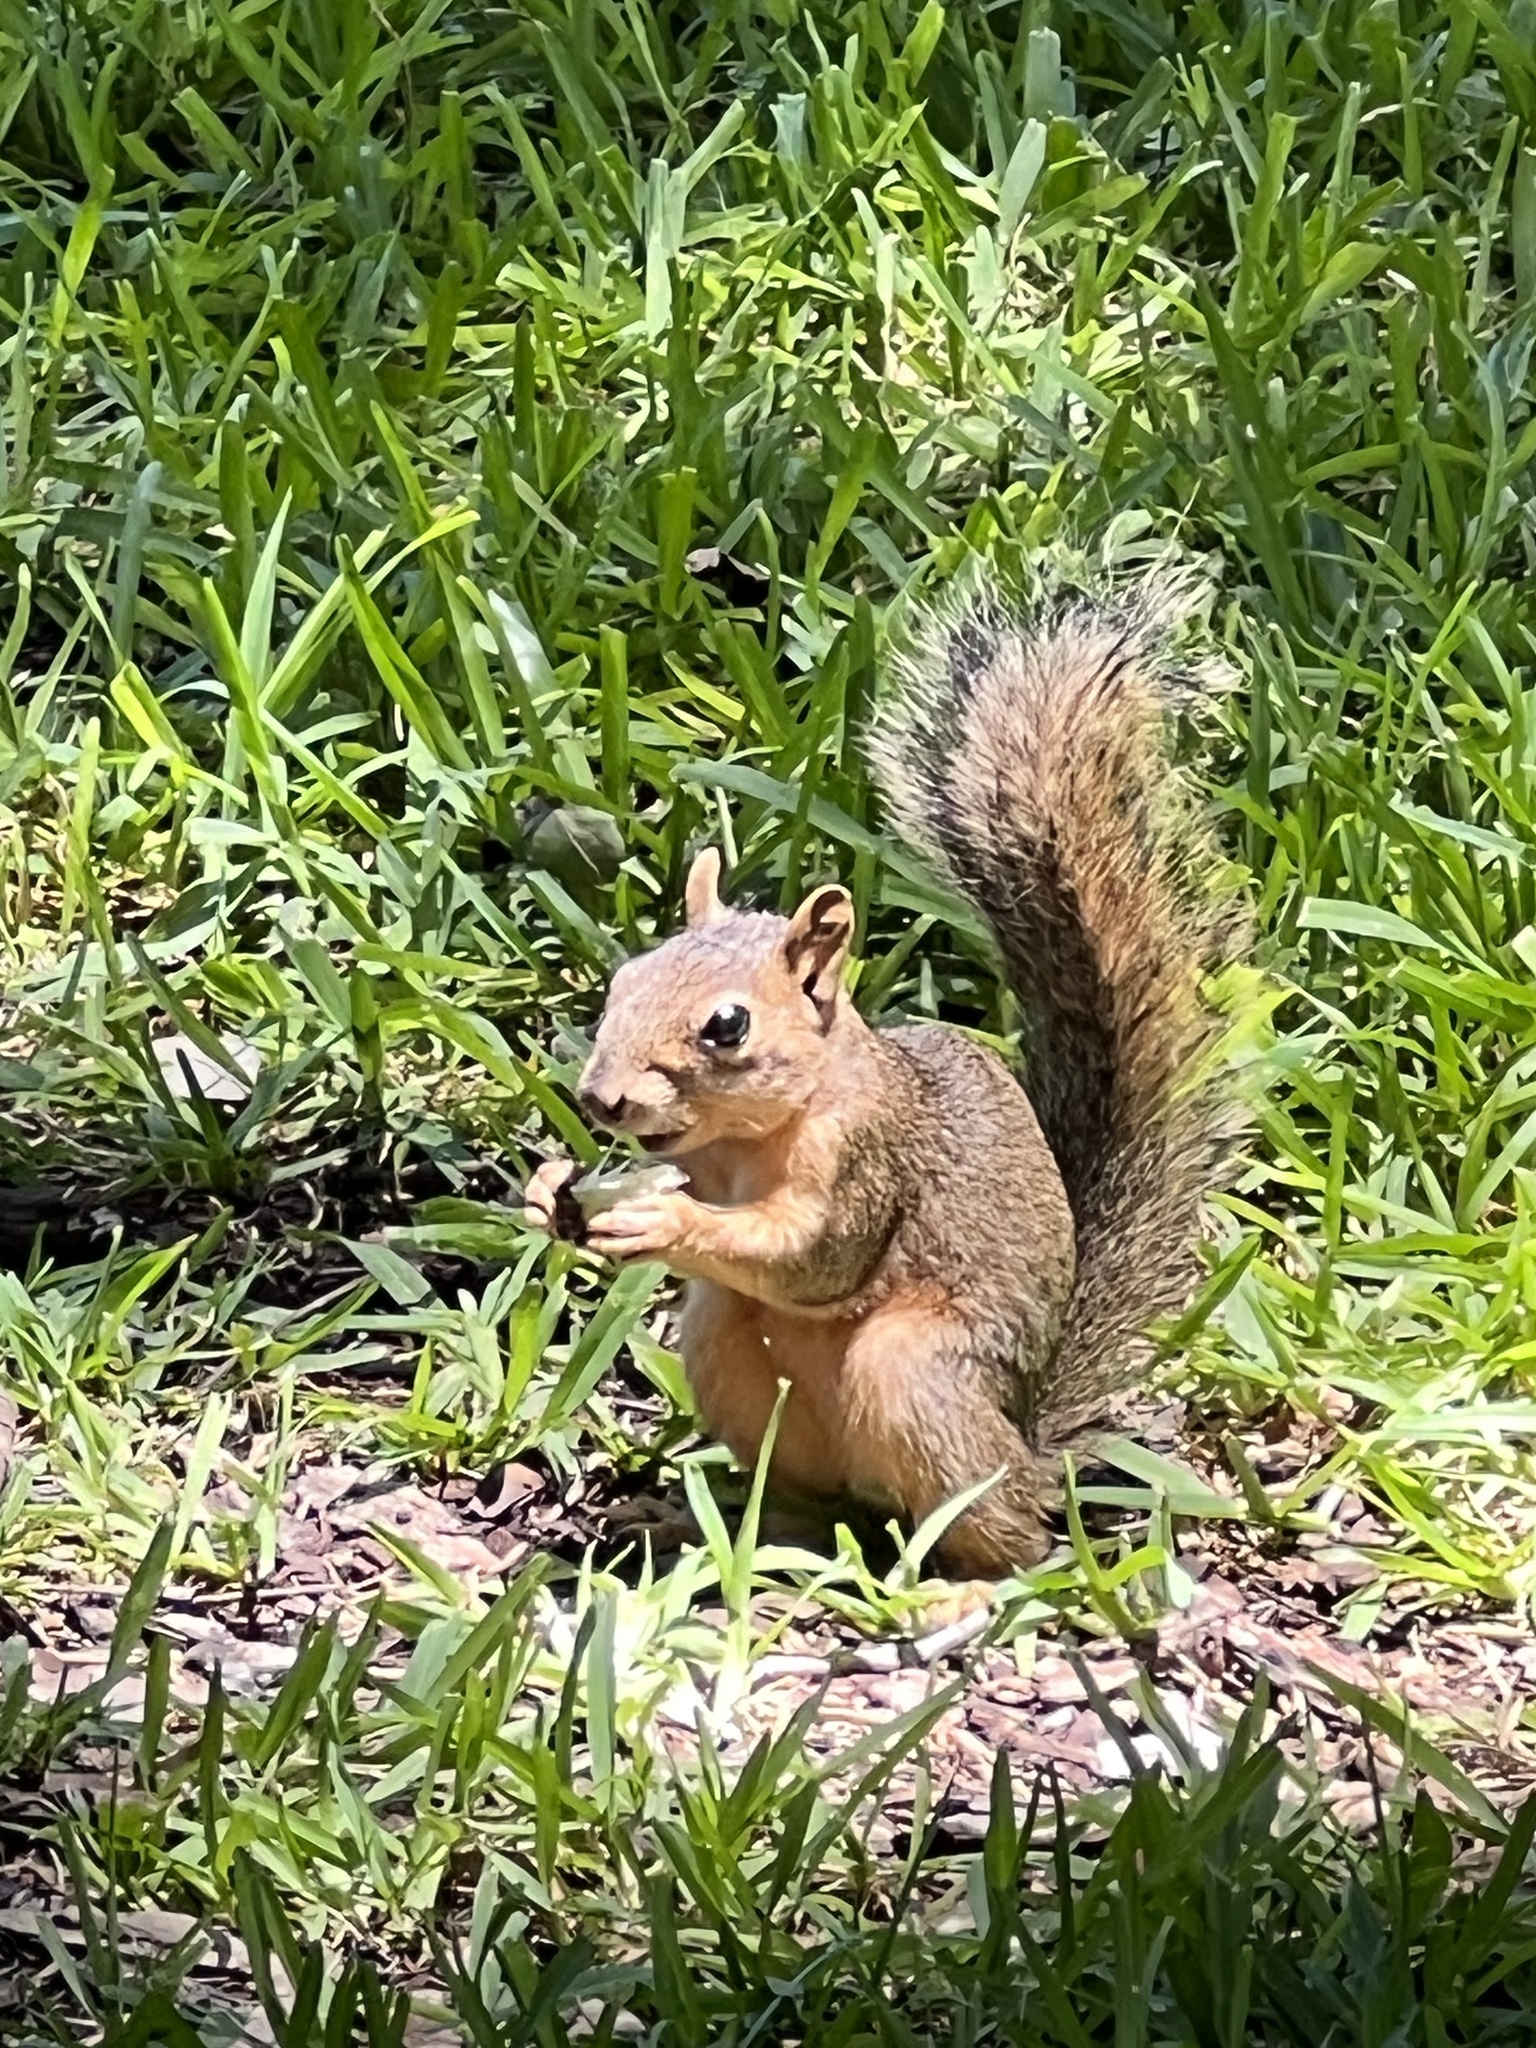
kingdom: Animalia
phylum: Chordata
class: Mammalia
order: Rodentia
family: Sciuridae
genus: Sciurus
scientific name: Sciurus niger
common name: Fox squirrel
